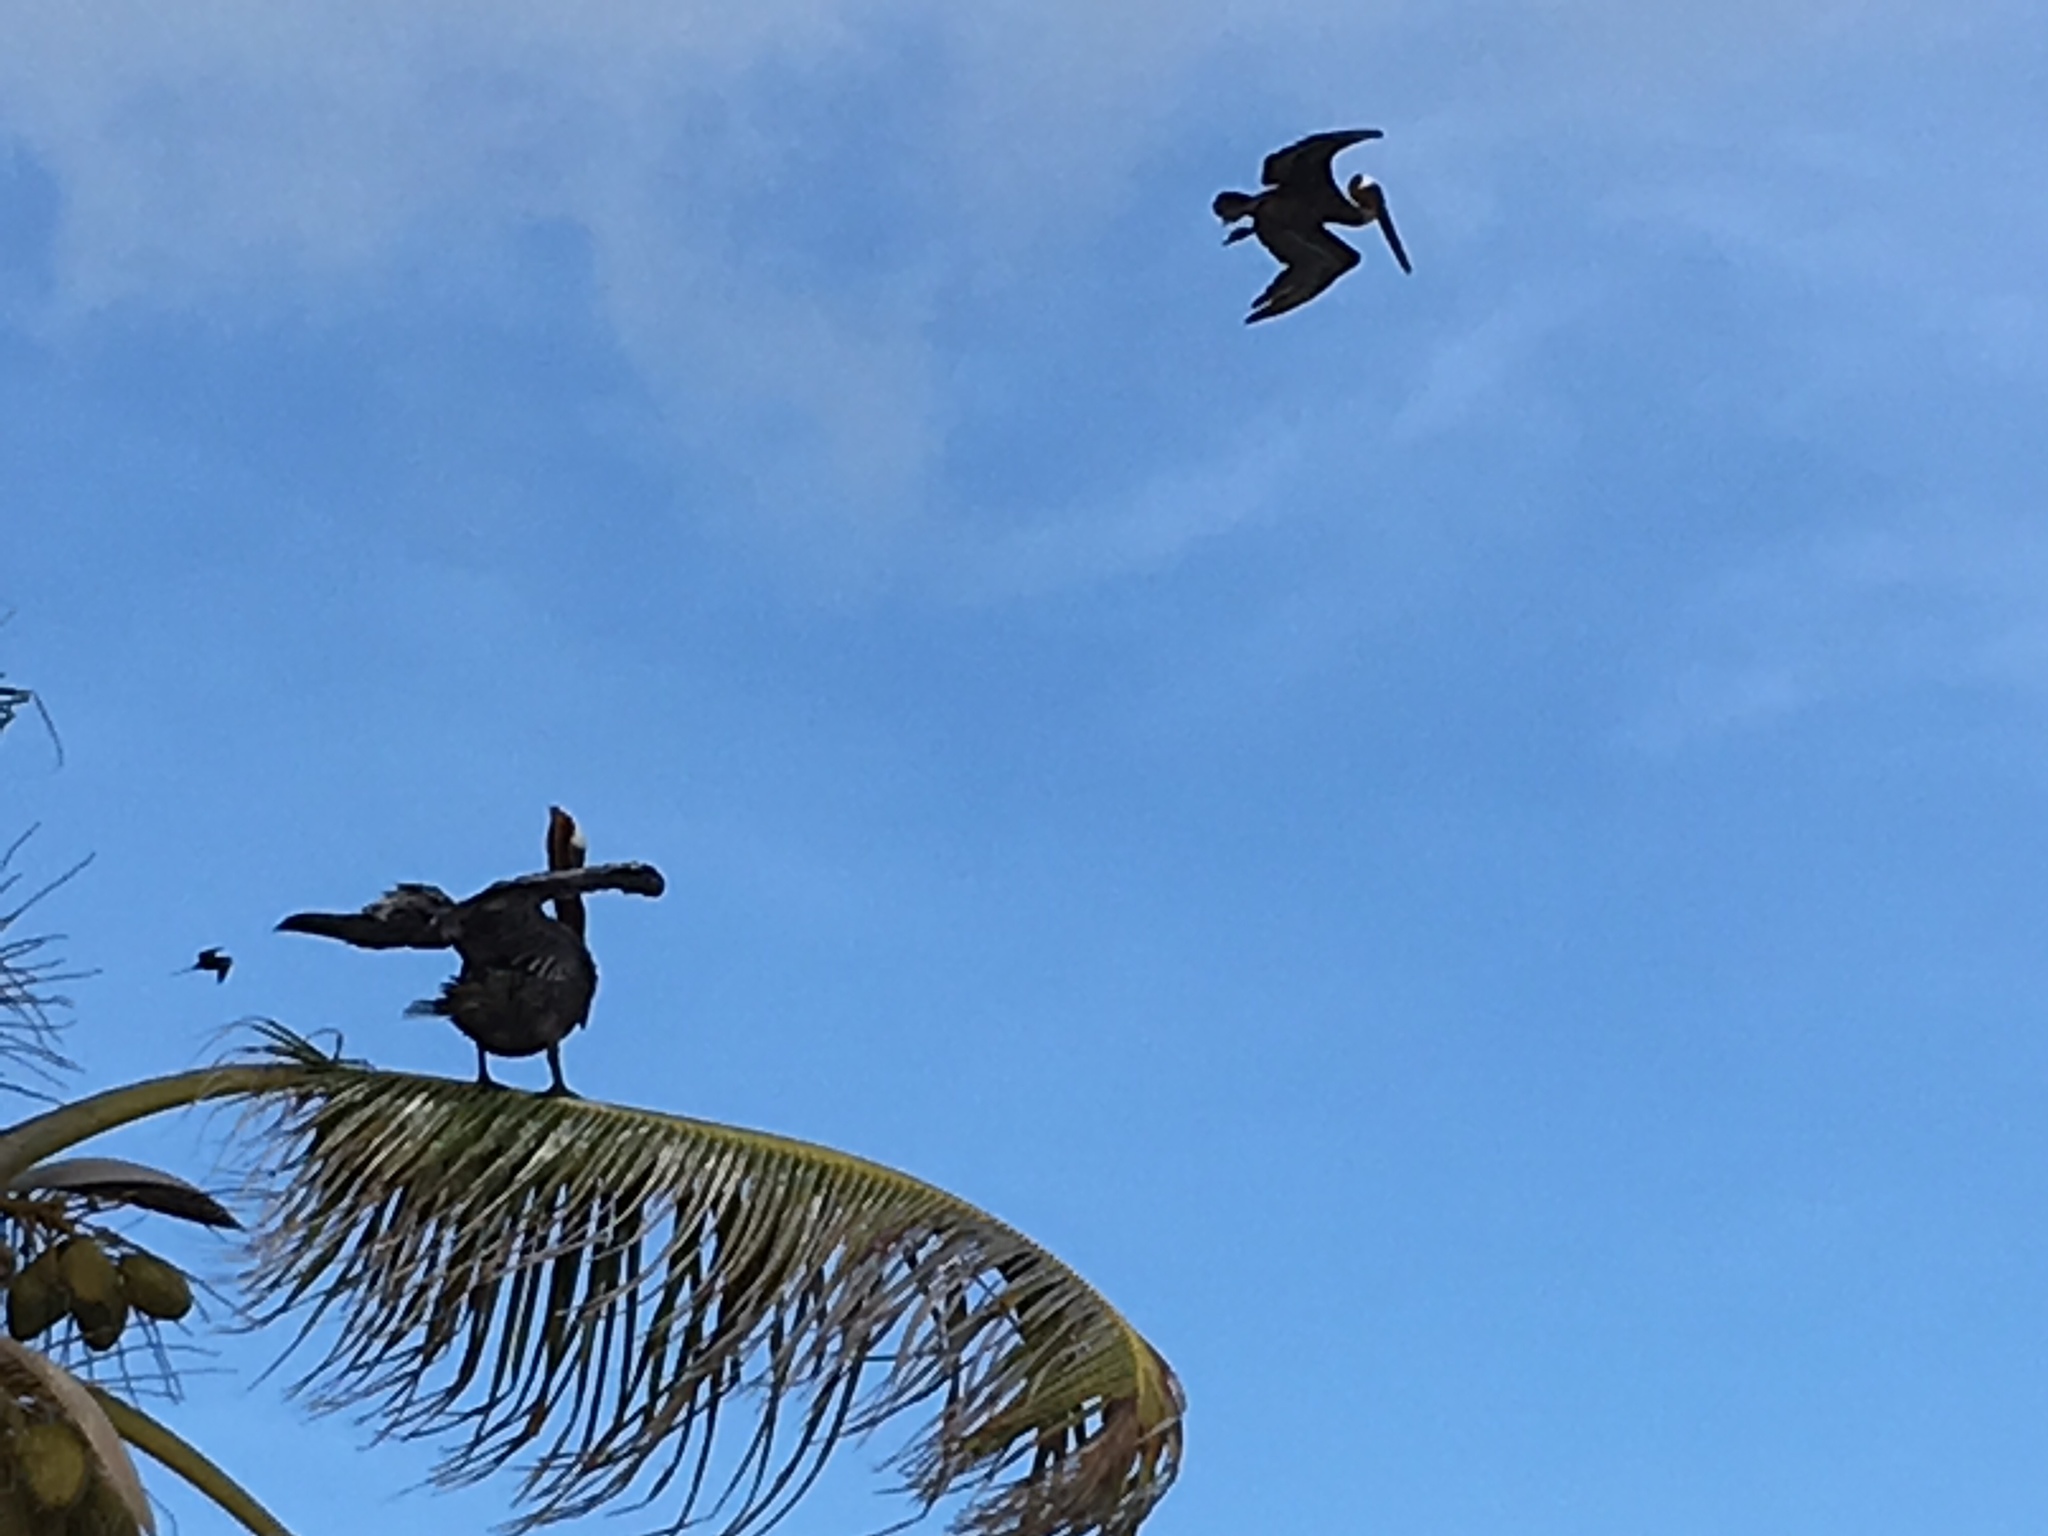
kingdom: Animalia
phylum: Chordata
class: Aves
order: Pelecaniformes
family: Pelecanidae
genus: Pelecanus
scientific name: Pelecanus occidentalis
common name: Brown pelican
